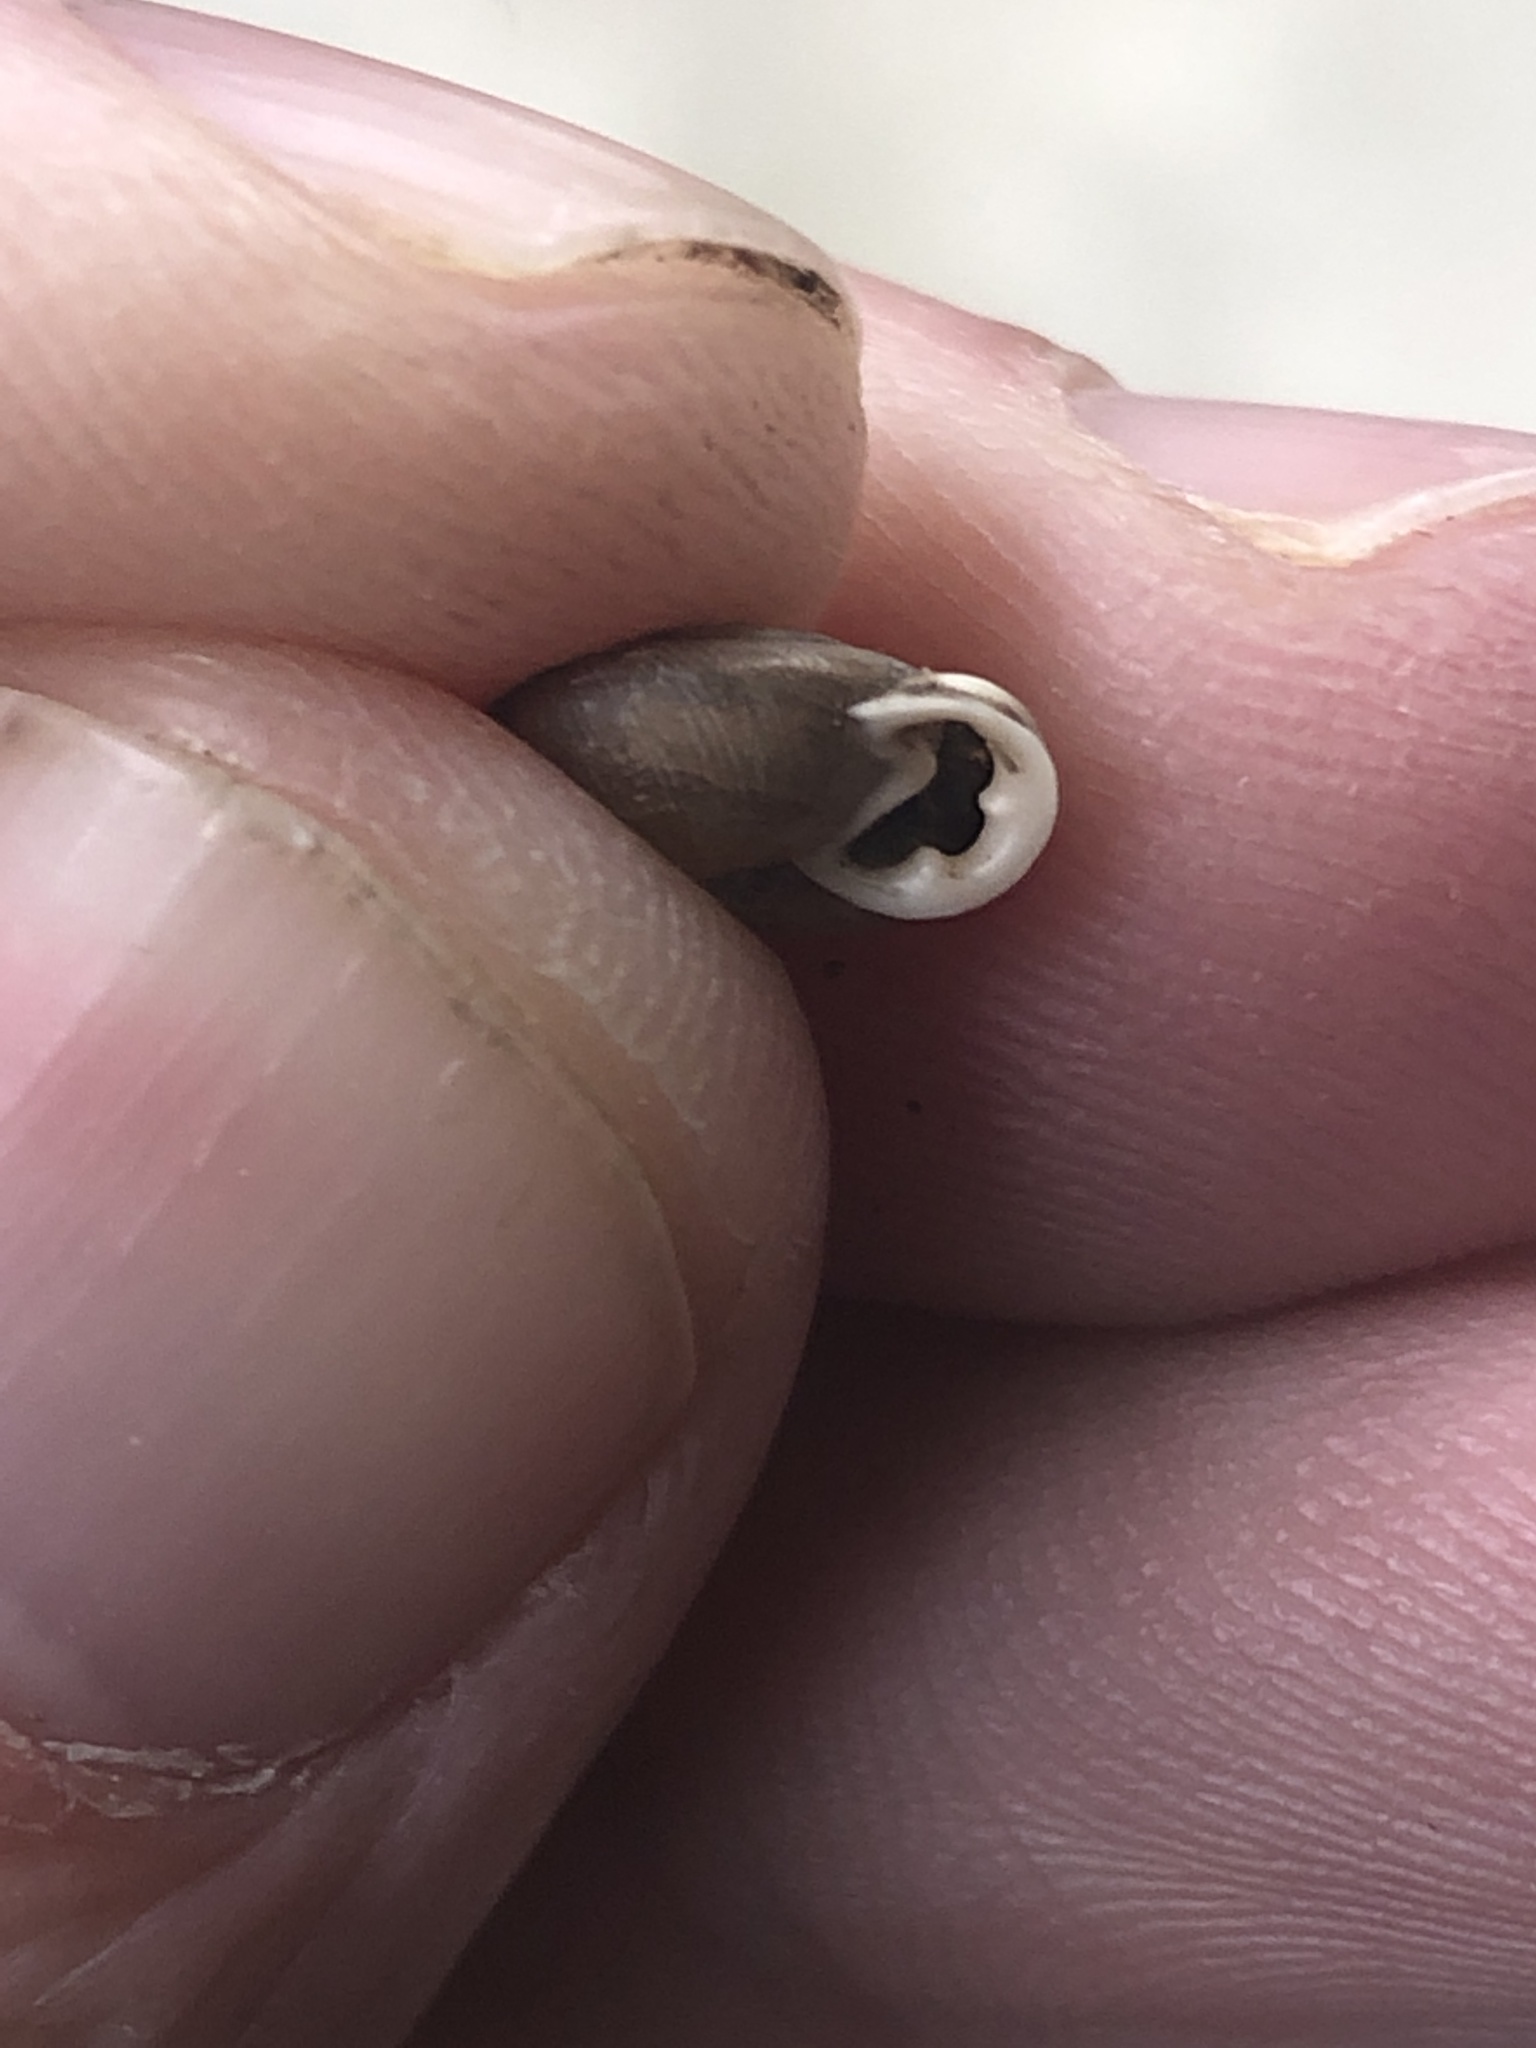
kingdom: Animalia
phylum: Mollusca
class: Gastropoda
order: Stylommatophora
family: Polygyridae
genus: Linisa
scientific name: Linisa texasiana
